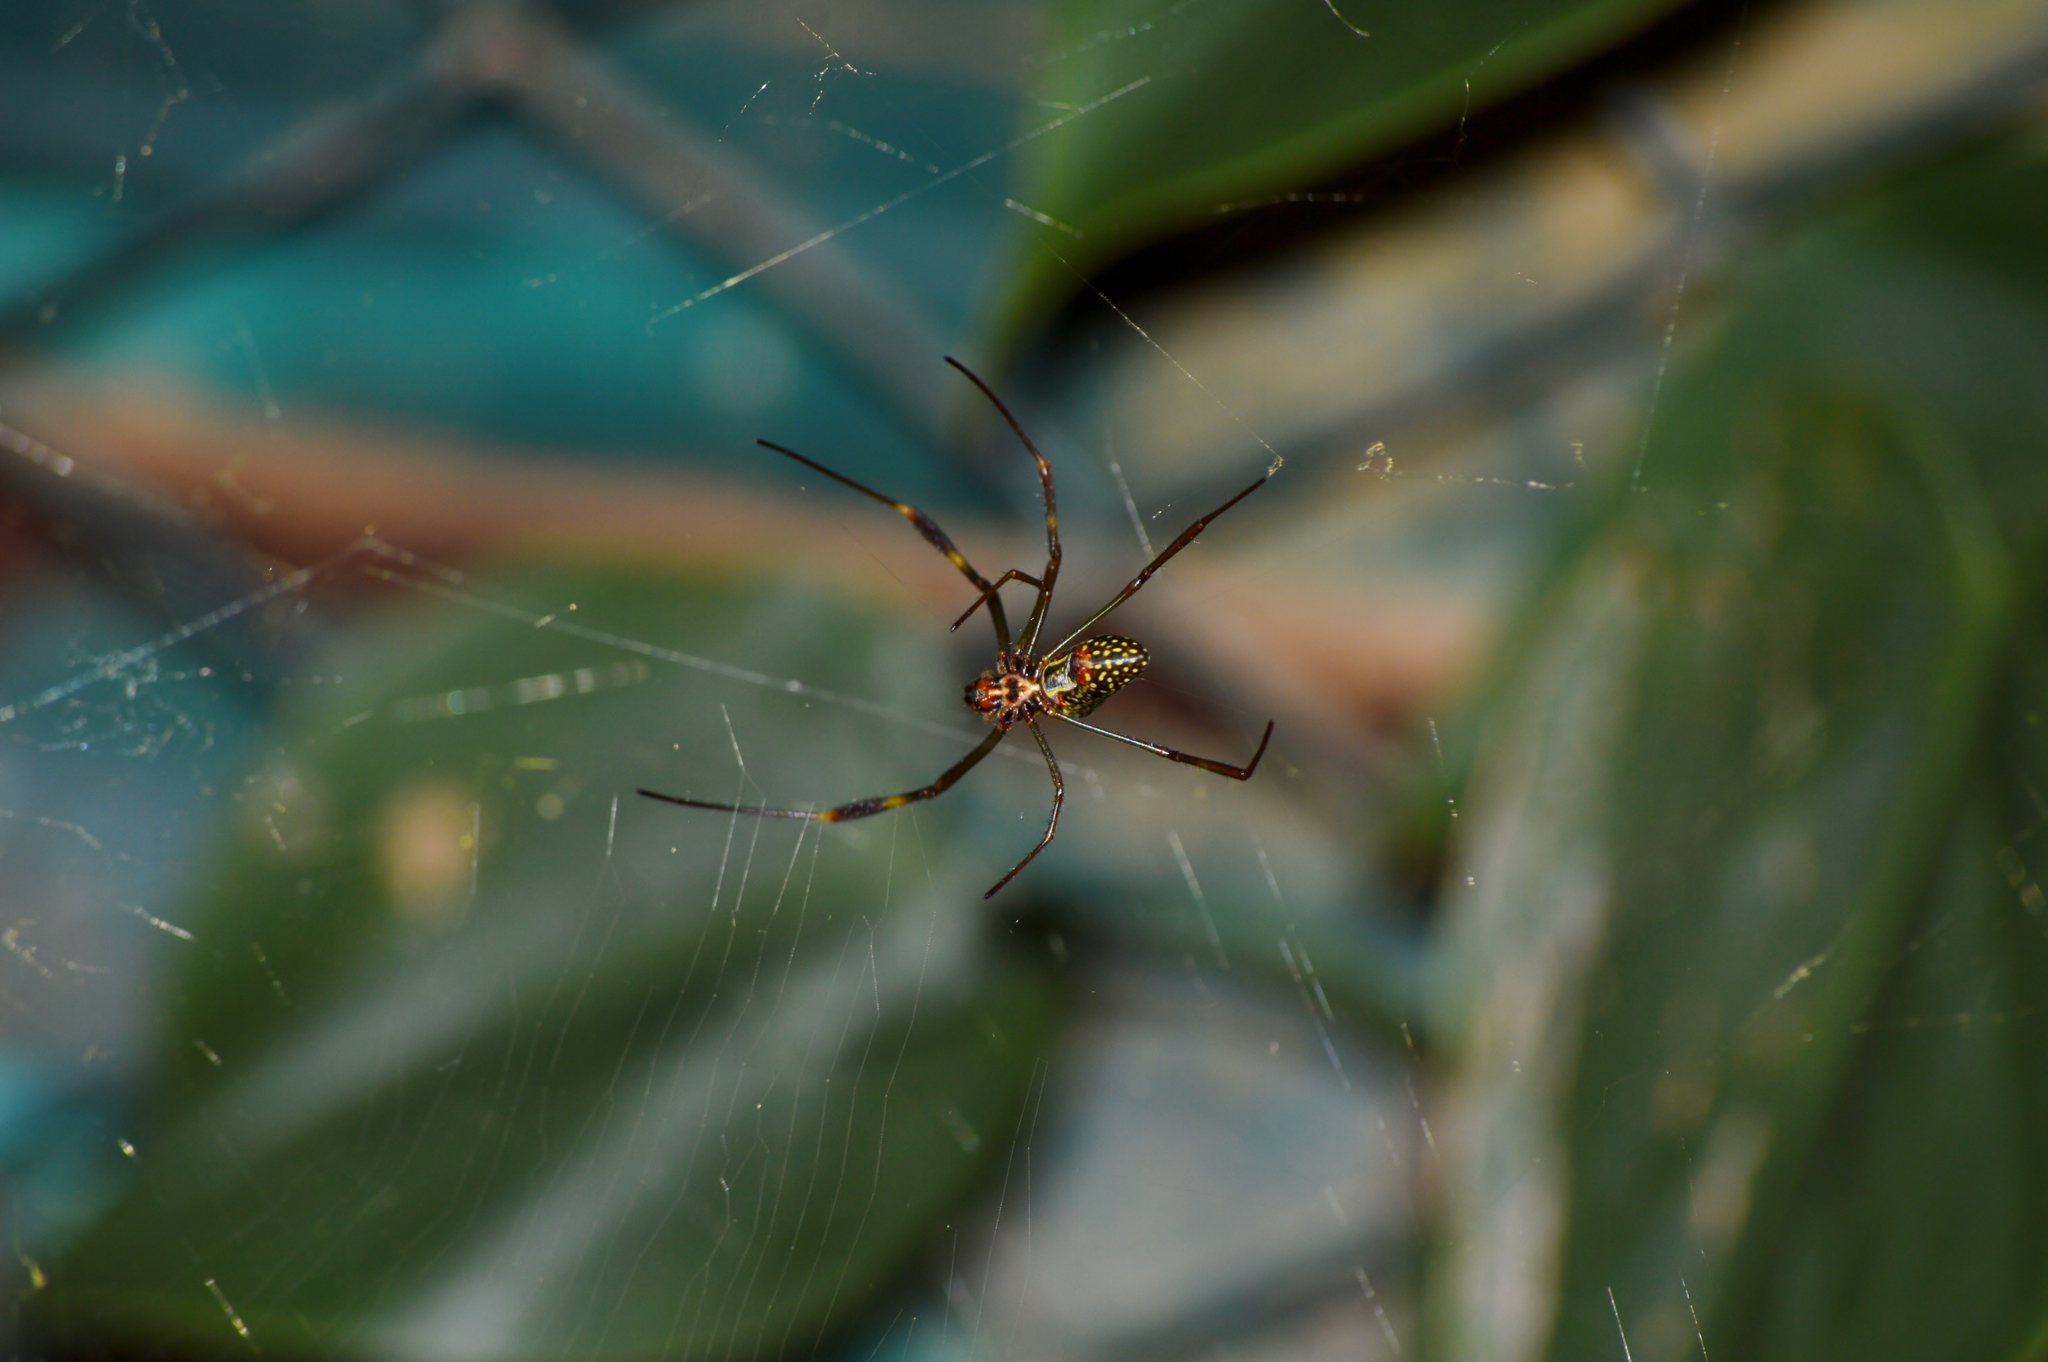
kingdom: Animalia
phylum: Arthropoda
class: Arachnida
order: Araneae
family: Araneidae
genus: Trichonephila
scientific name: Trichonephila clavipes
